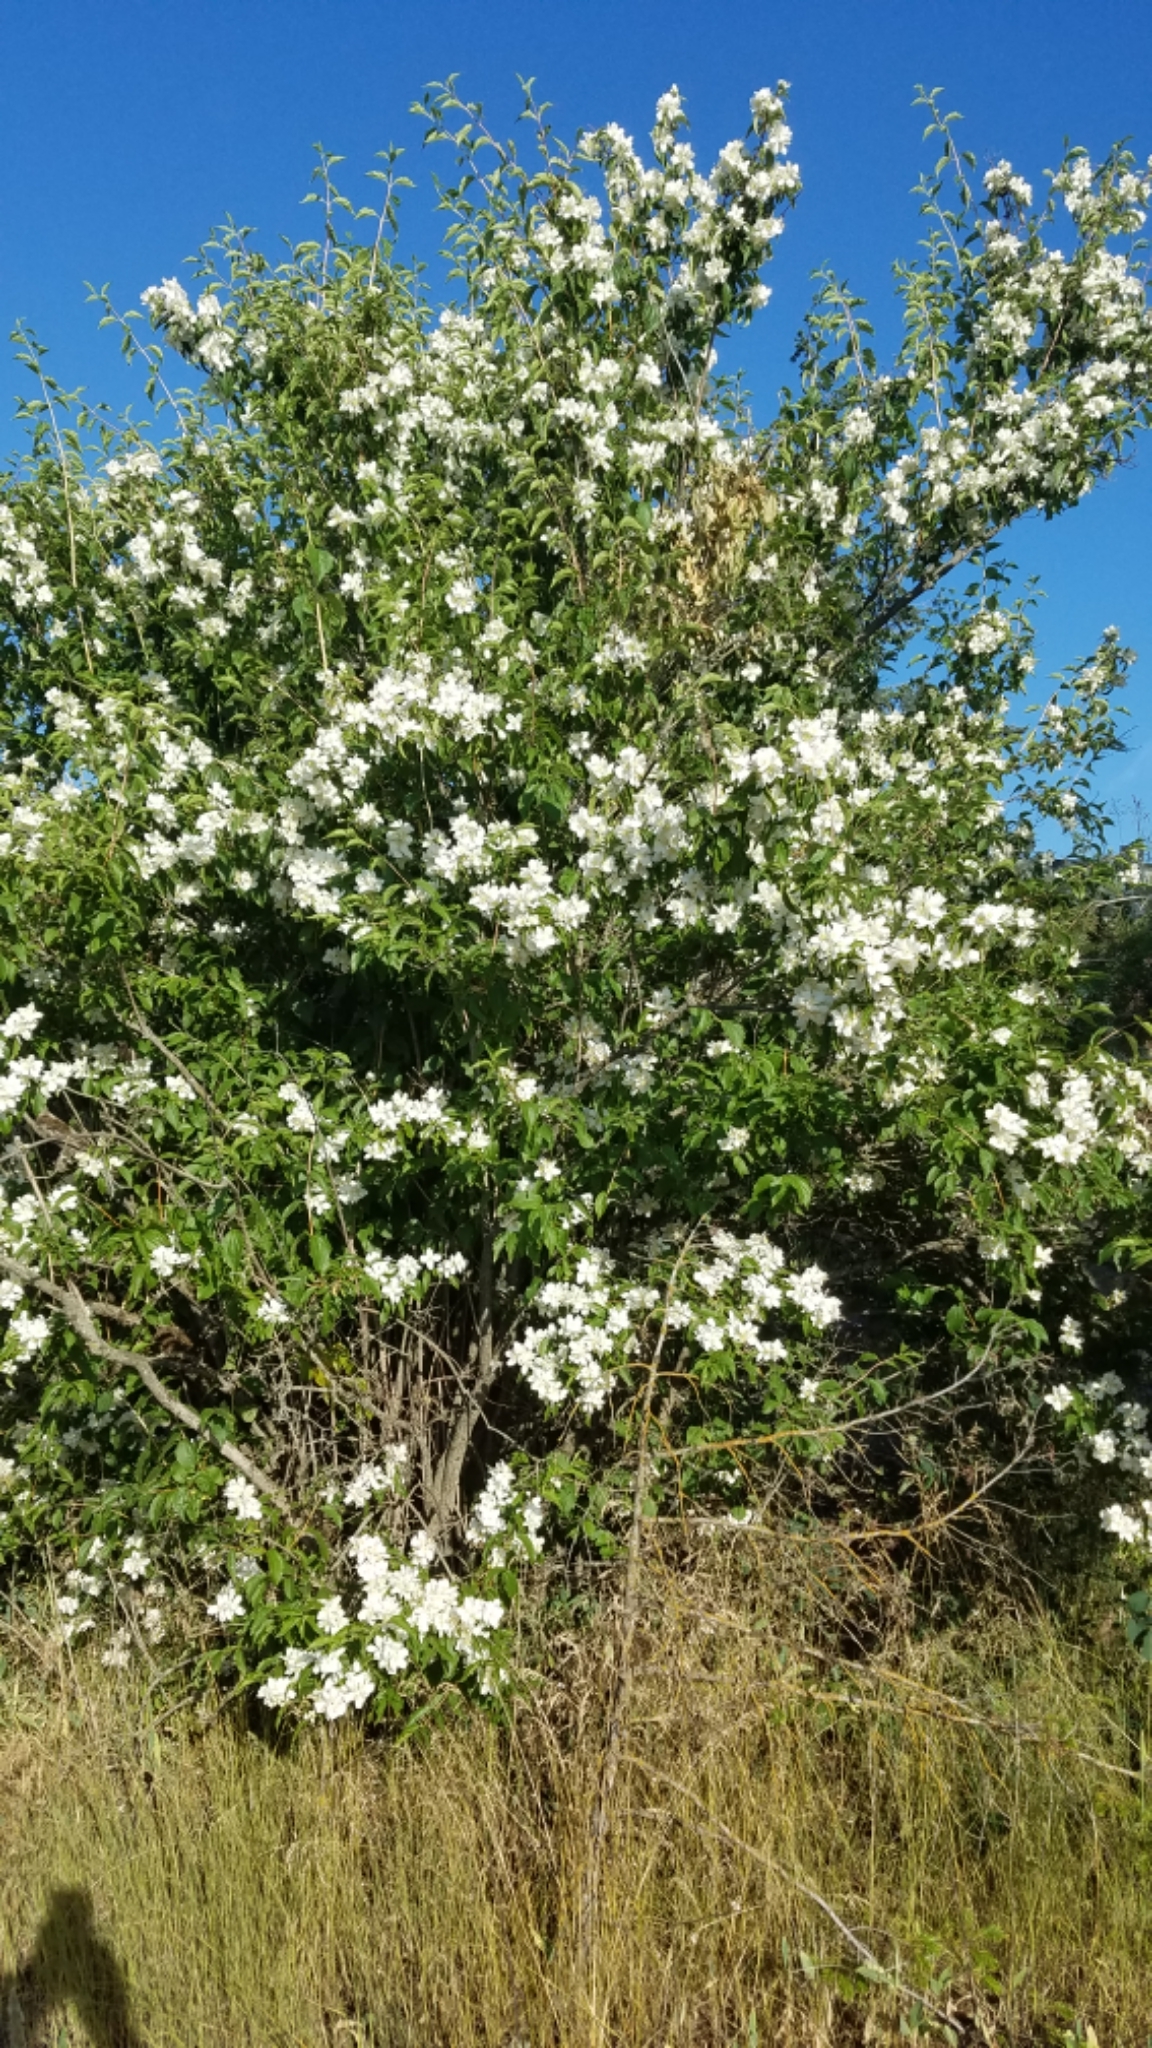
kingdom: Plantae
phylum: Tracheophyta
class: Magnoliopsida
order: Cornales
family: Hydrangeaceae
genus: Philadelphus
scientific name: Philadelphus lewisii
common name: Lewis's mock orange
